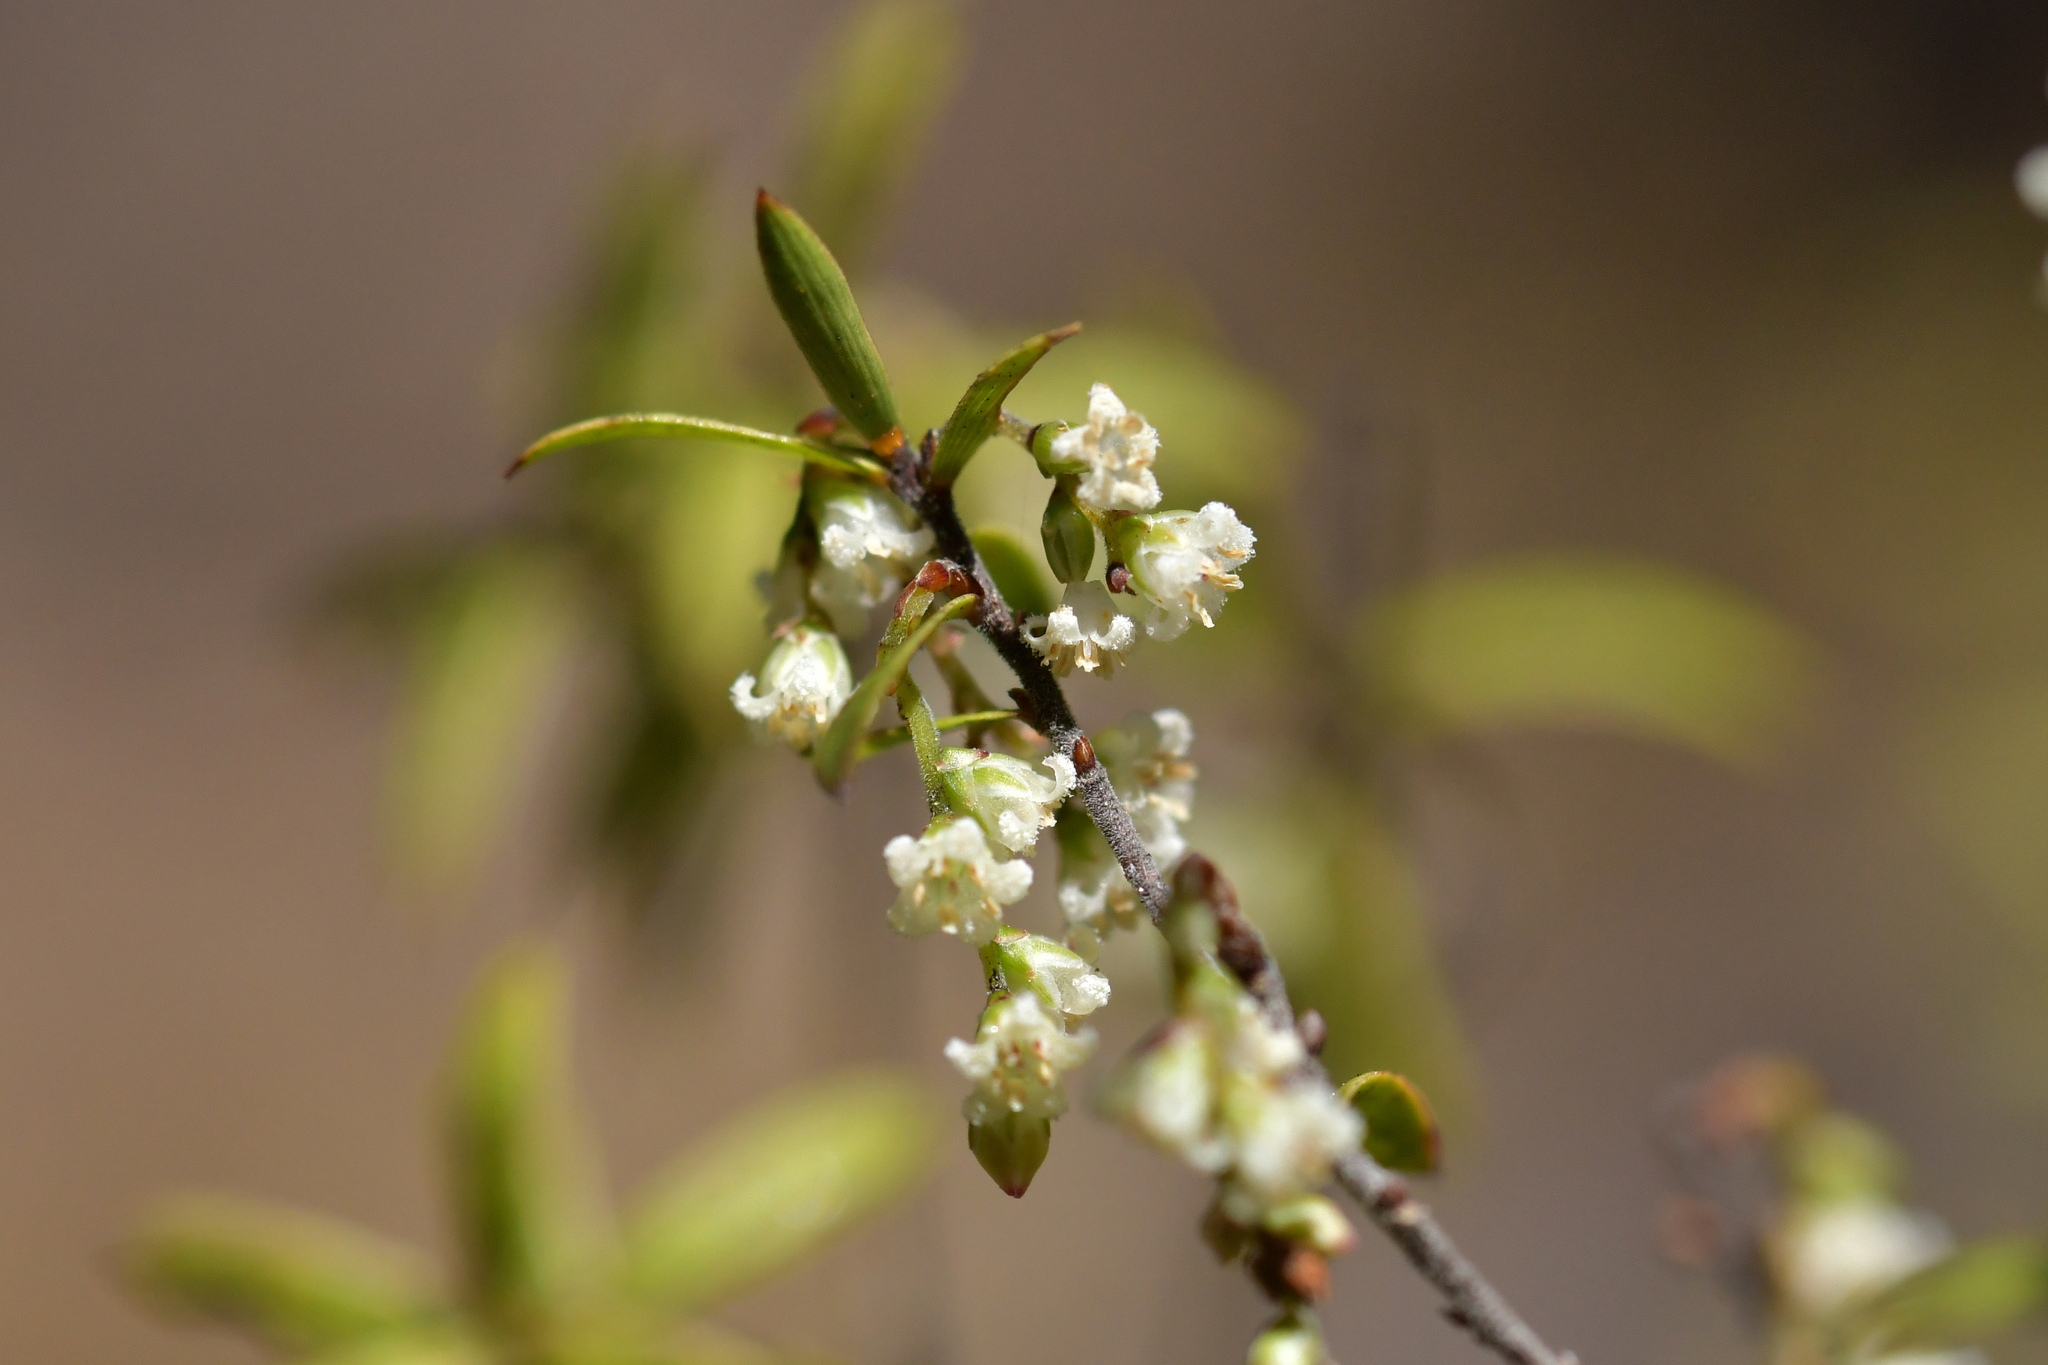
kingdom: Plantae
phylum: Tracheophyta
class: Magnoliopsida
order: Ericales
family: Ericaceae
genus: Leucopogon
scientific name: Leucopogon fasciculatus
